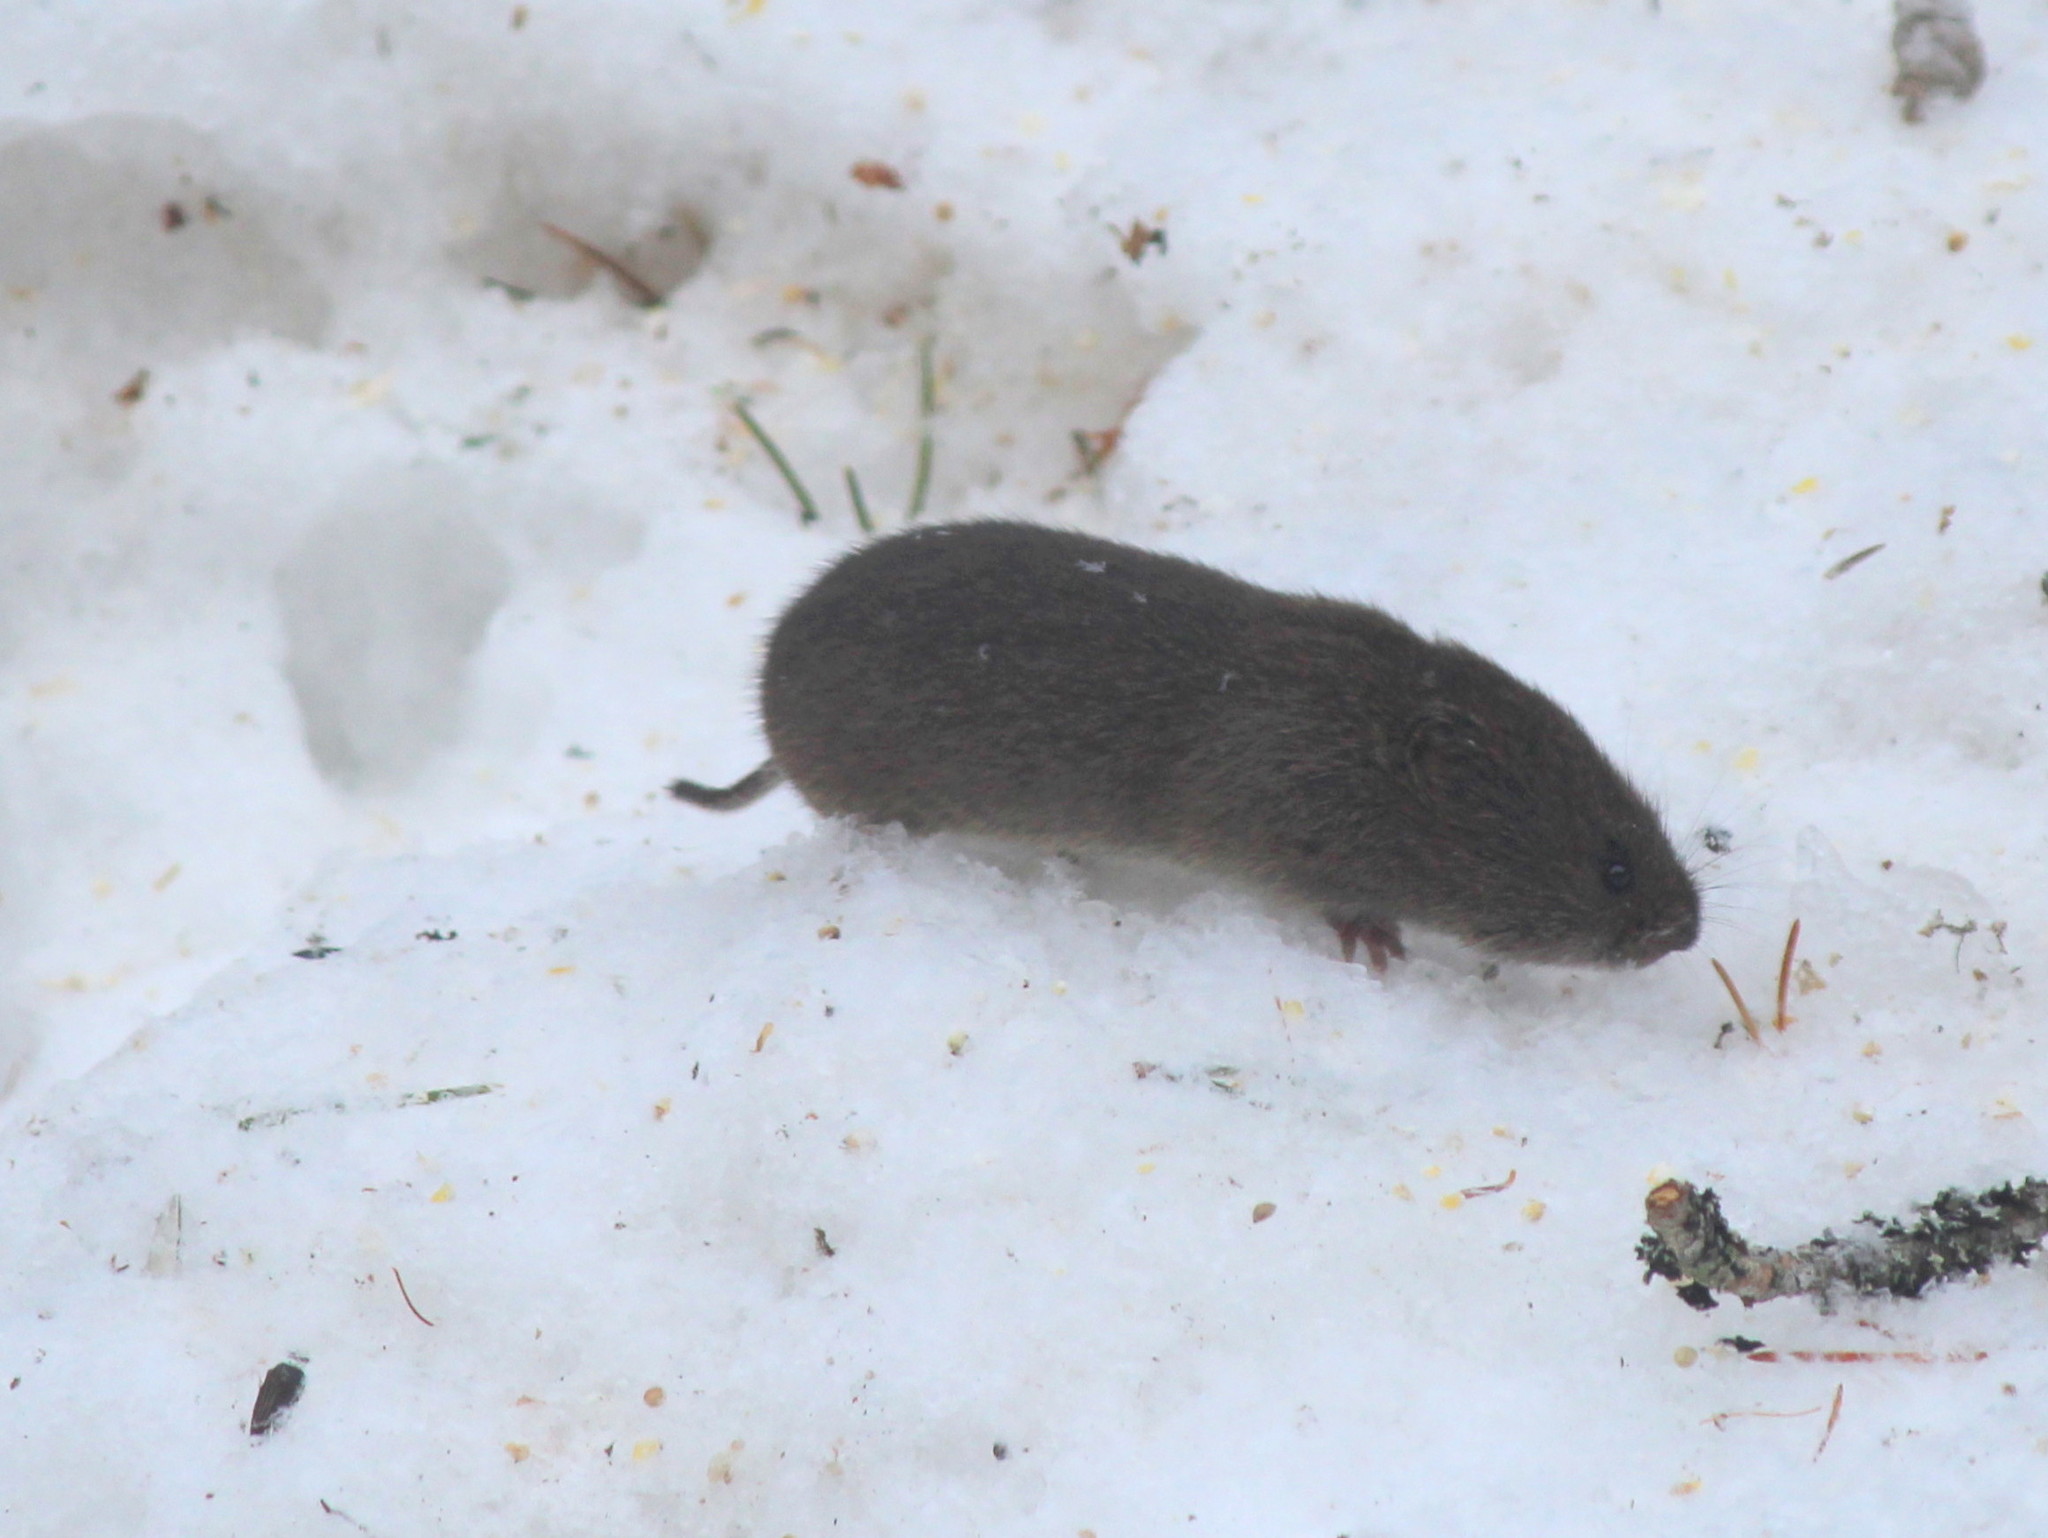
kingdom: Animalia
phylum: Chordata
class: Mammalia
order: Rodentia
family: Cricetidae
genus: Microtus
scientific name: Microtus pennsylvanicus
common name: Meadow vole
